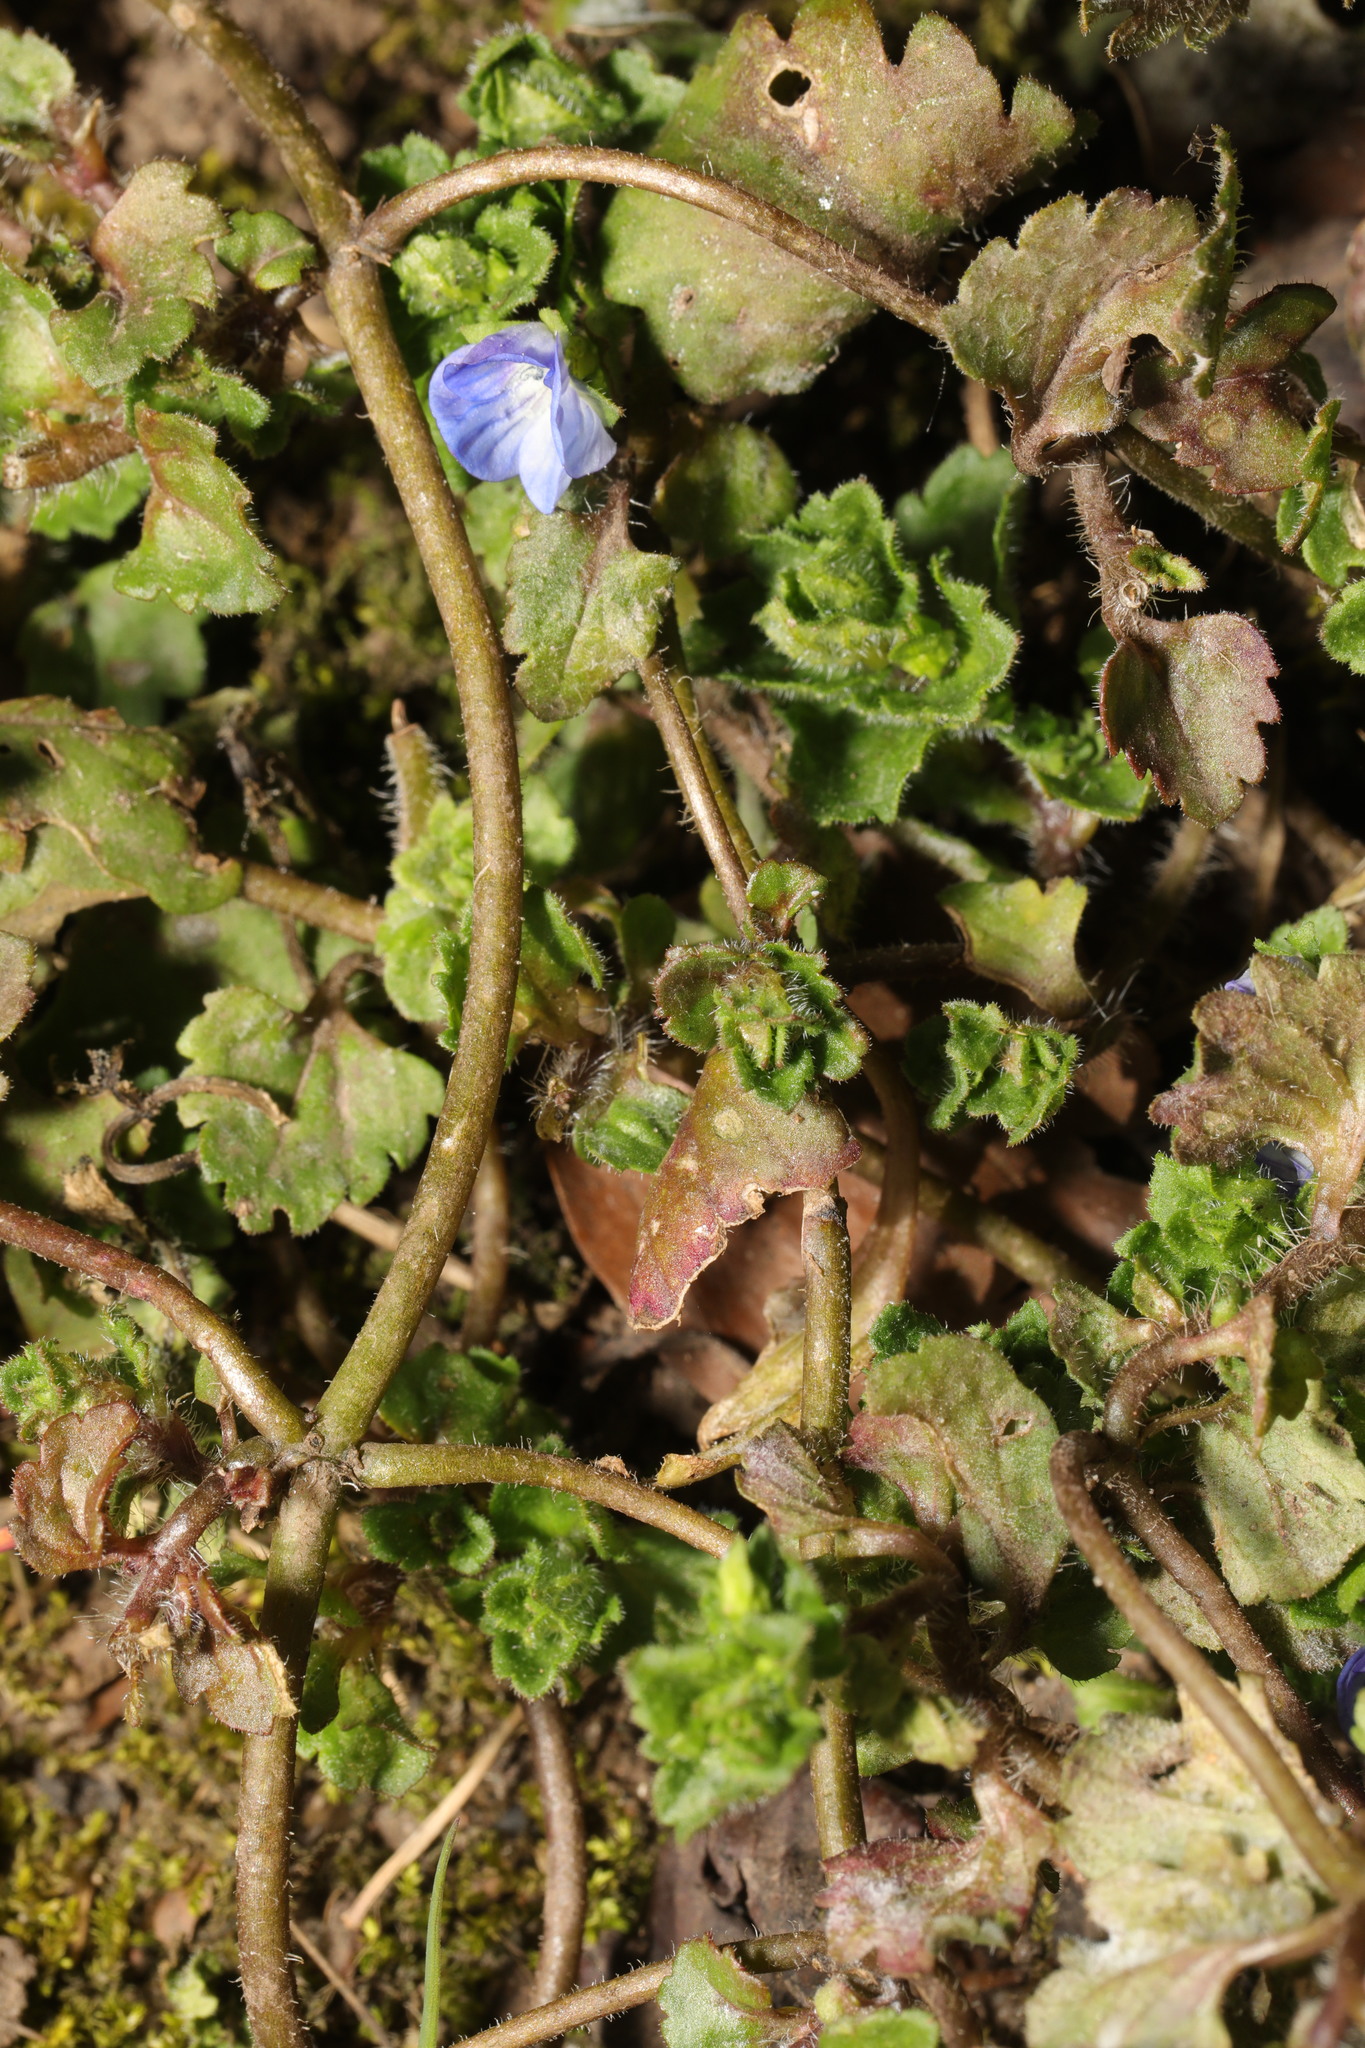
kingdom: Plantae
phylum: Tracheophyta
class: Magnoliopsida
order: Lamiales
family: Plantaginaceae
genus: Veronica
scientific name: Veronica persica
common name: Common field-speedwell
